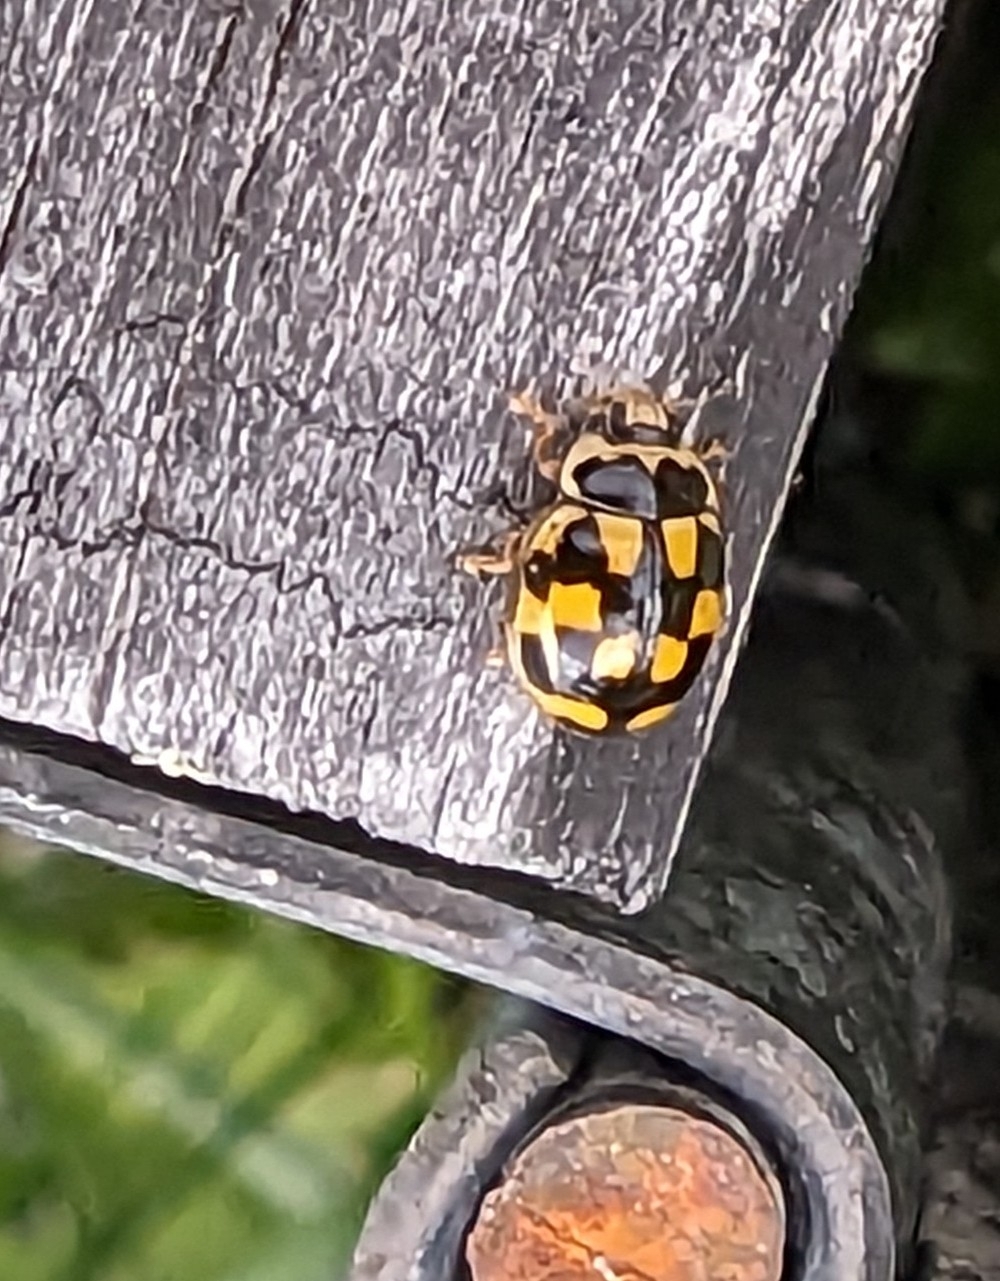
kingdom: Animalia
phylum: Arthropoda
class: Insecta
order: Coleoptera
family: Coccinellidae
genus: Propylaea
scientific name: Propylaea quatuordecimpunctata
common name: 14-spotted ladybird beetle
